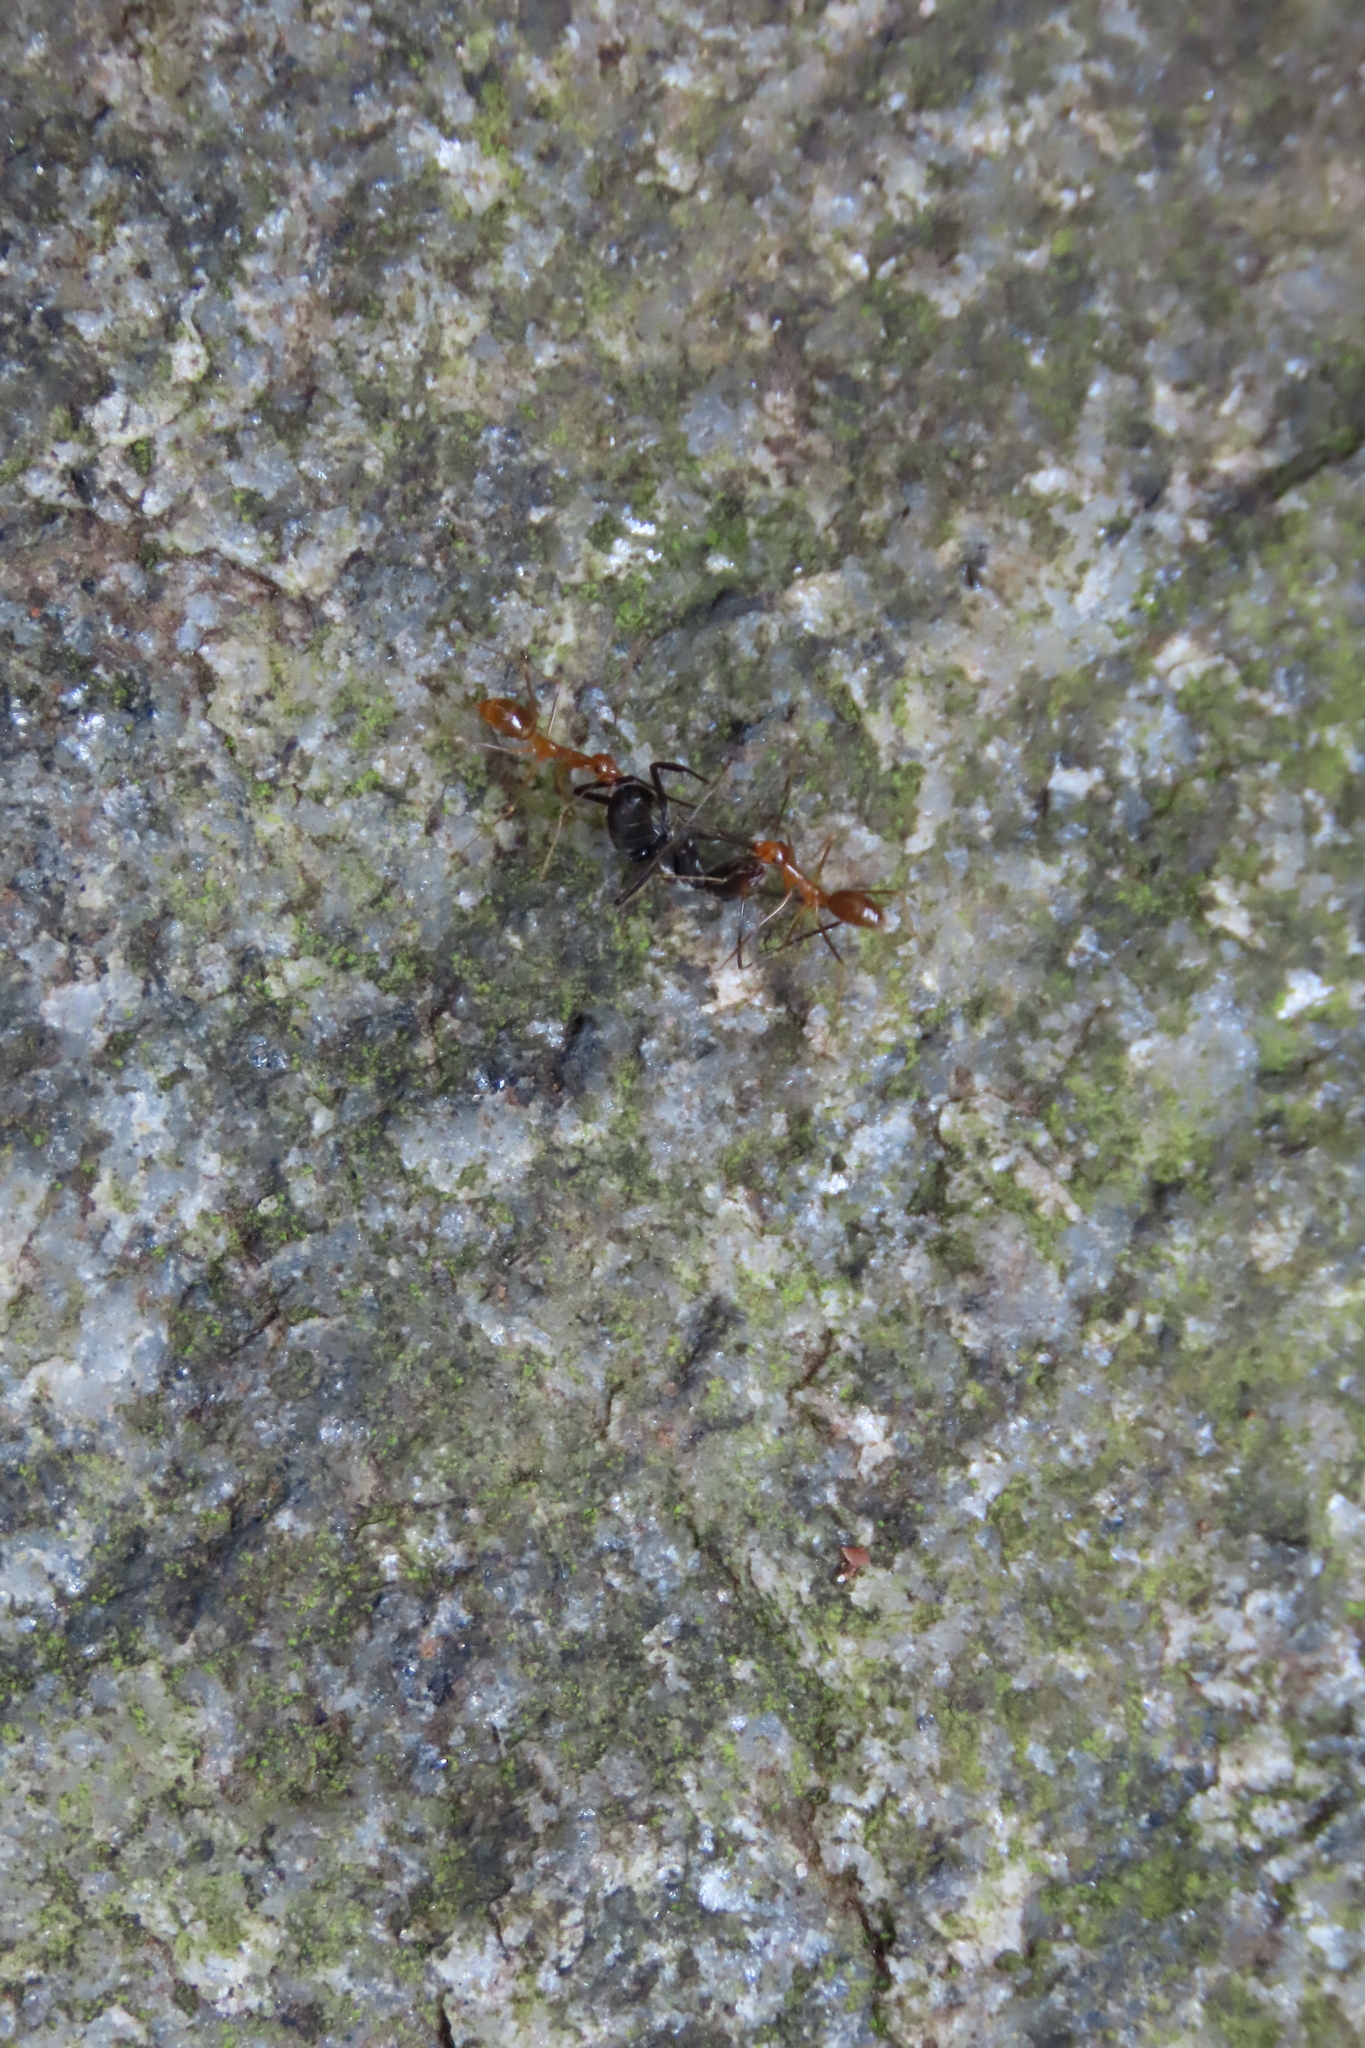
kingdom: Animalia
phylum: Arthropoda
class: Insecta
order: Hymenoptera
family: Formicidae
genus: Anoplolepis
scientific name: Anoplolepis gracilipes
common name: Ant
